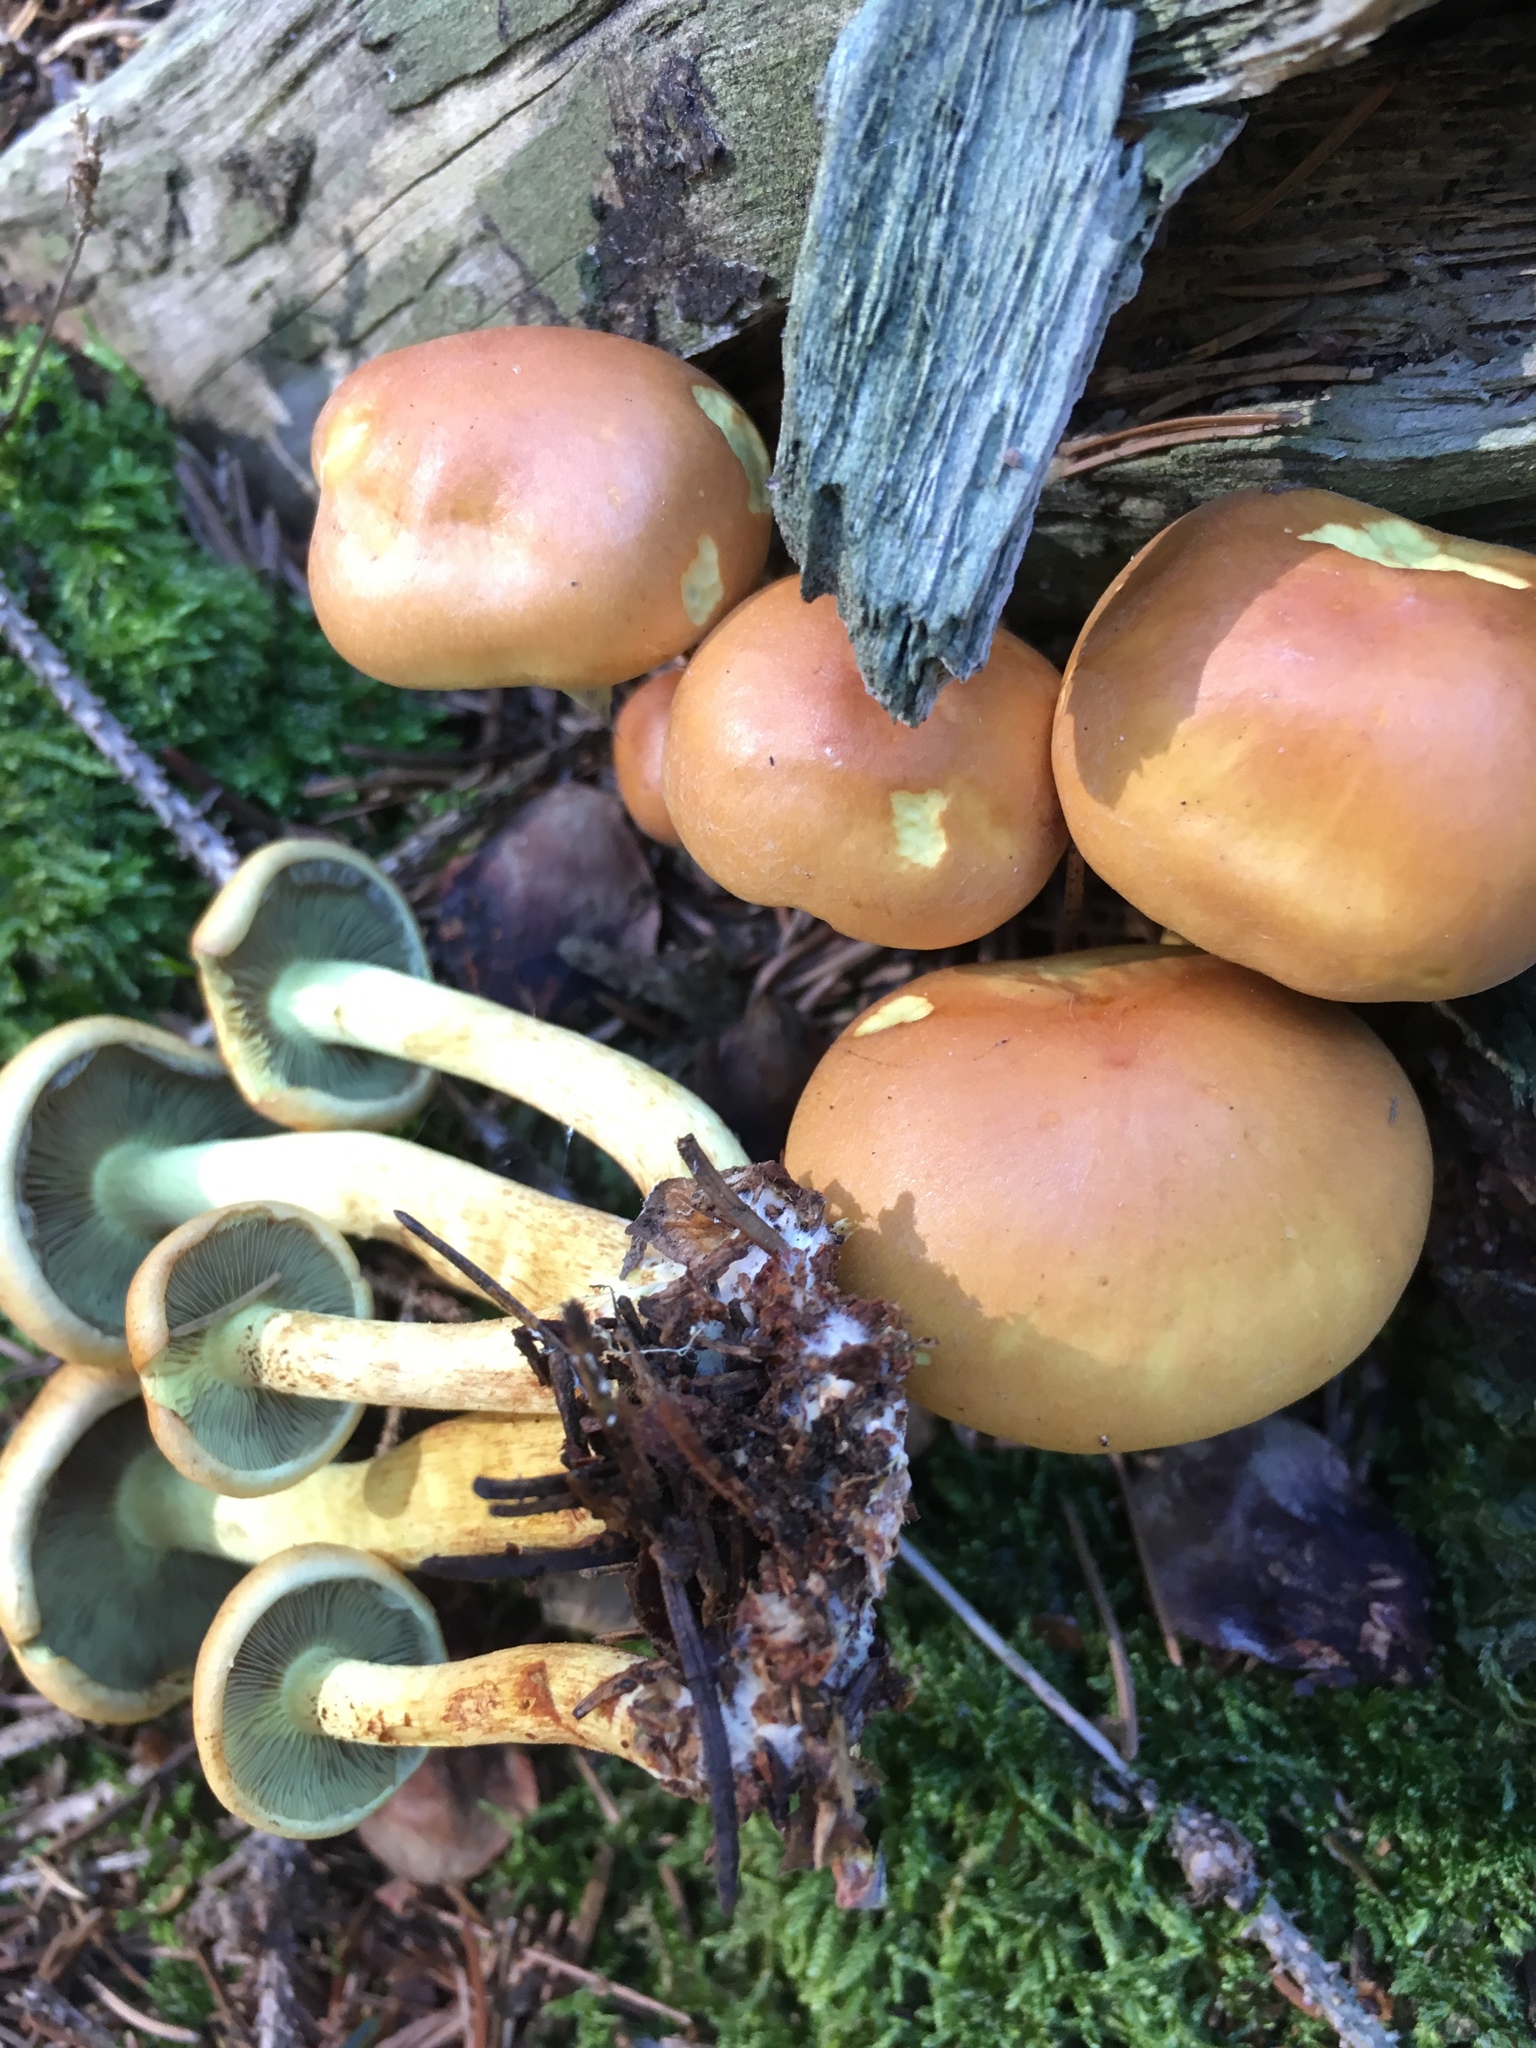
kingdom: Fungi
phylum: Basidiomycota
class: Agaricomycetes
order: Agaricales
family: Strophariaceae
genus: Hypholoma
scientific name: Hypholoma fasciculare
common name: Sulphur tuft
